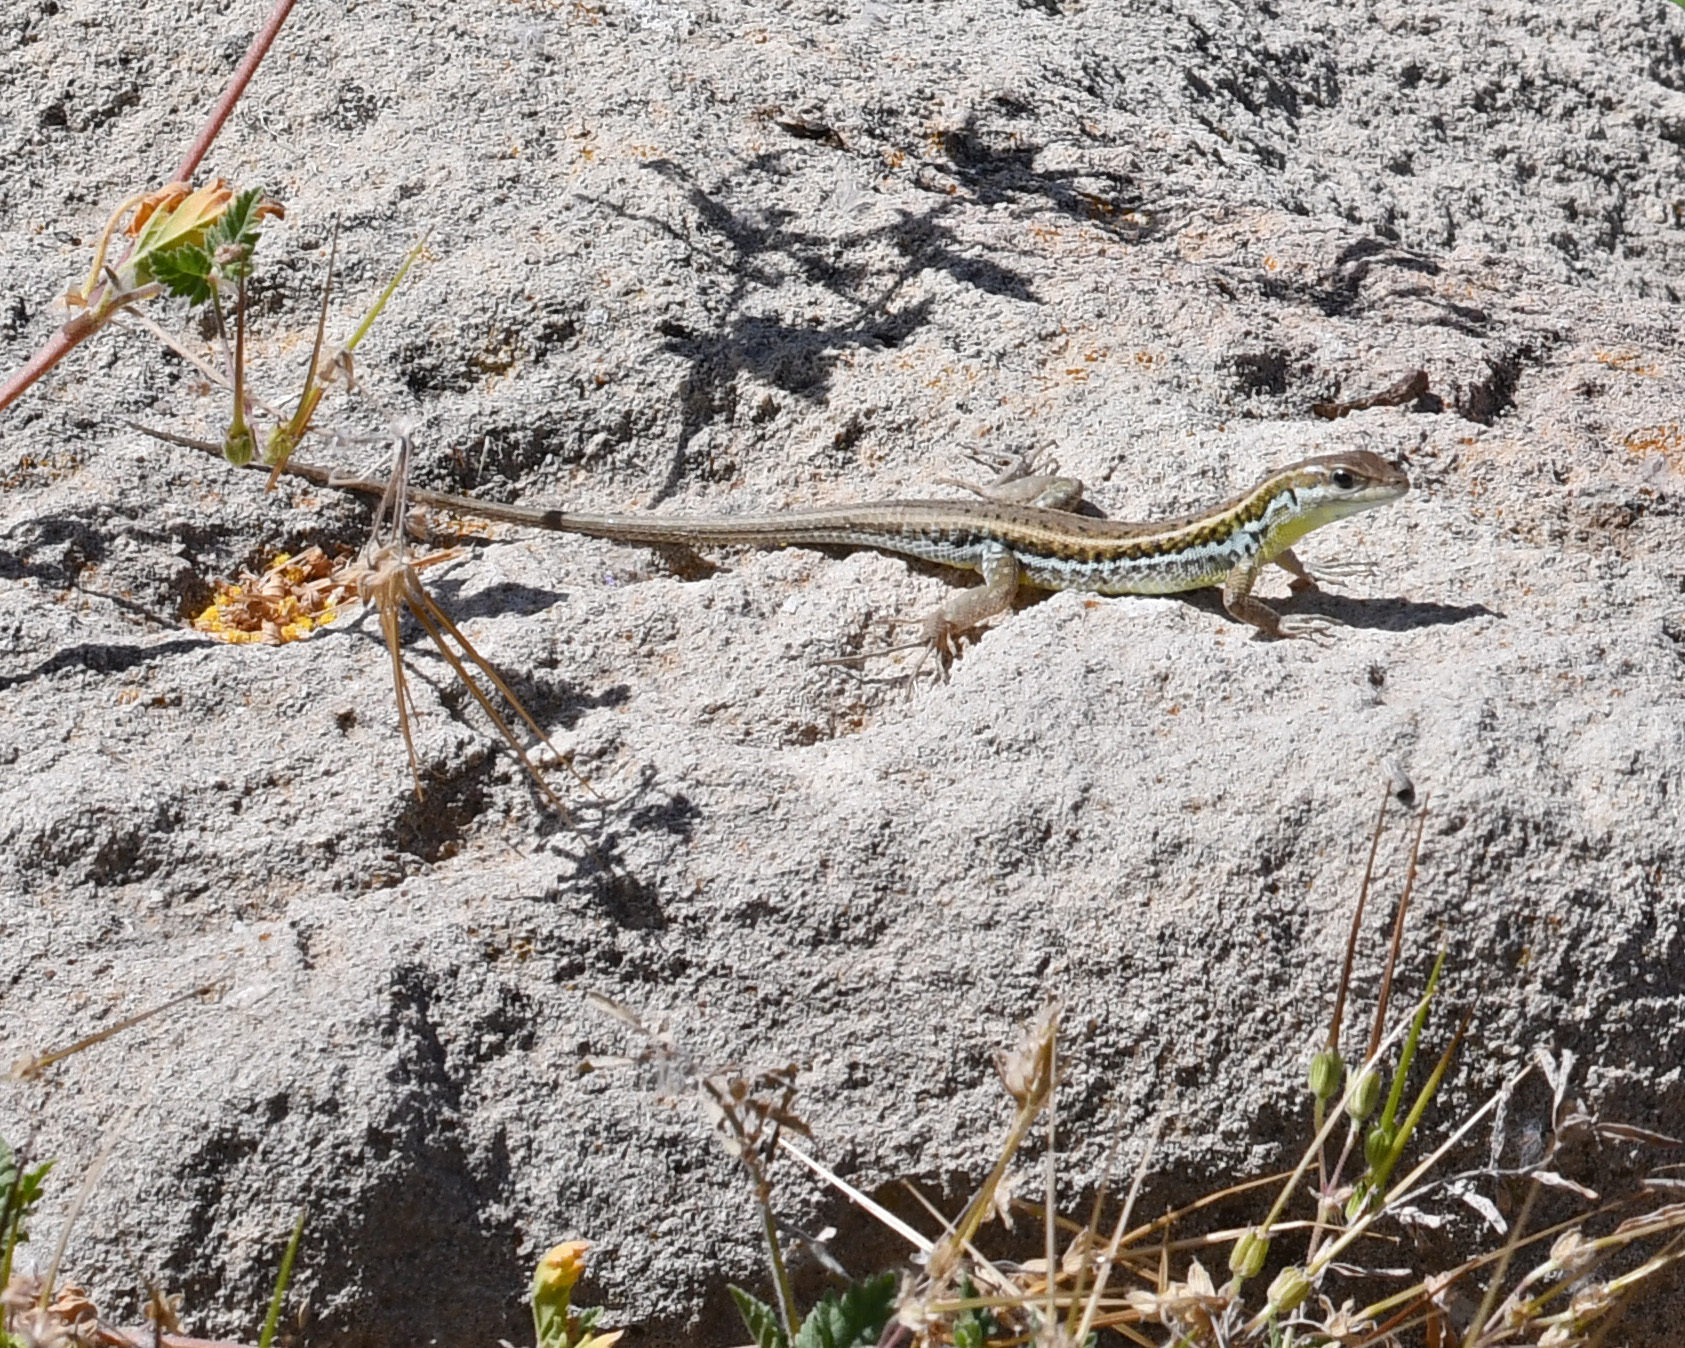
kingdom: Animalia
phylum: Chordata
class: Squamata
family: Lacertidae
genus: Ophisops
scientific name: Ophisops elegans
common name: Snake-eyed lizard
